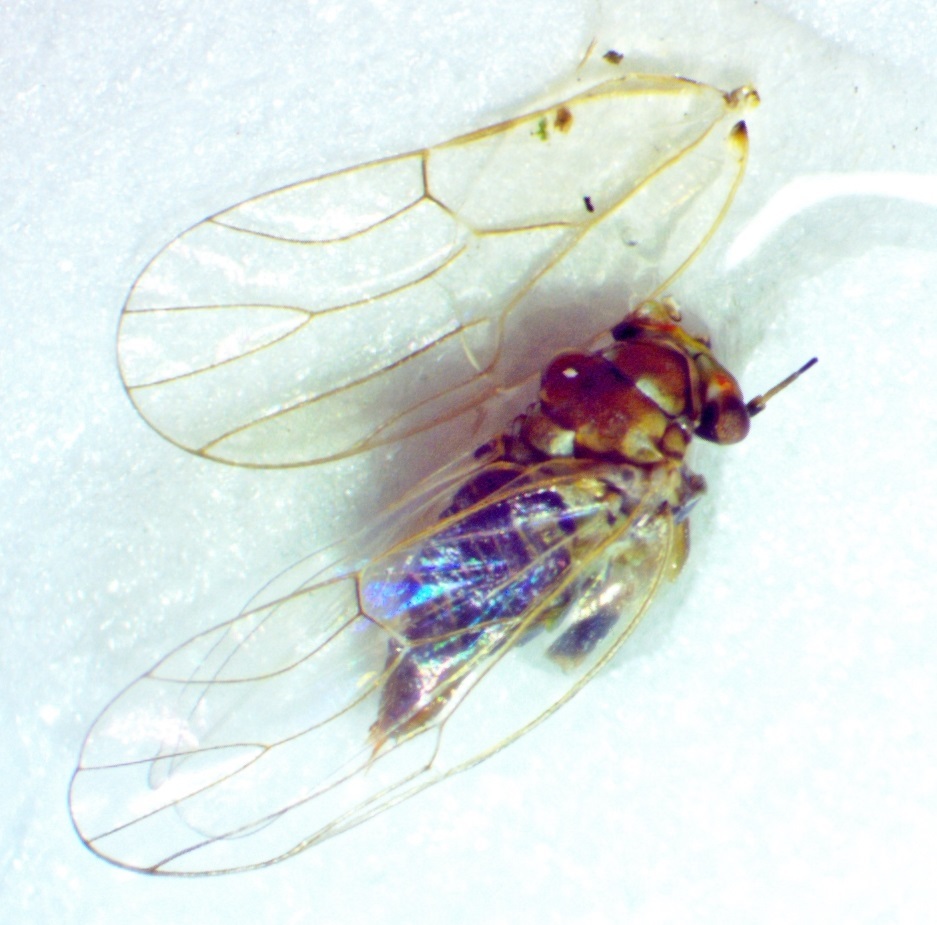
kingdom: Animalia
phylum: Arthropoda
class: Insecta
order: Hemiptera
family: Aphalaridae
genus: Gyropsylla
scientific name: Gyropsylla ilecis
